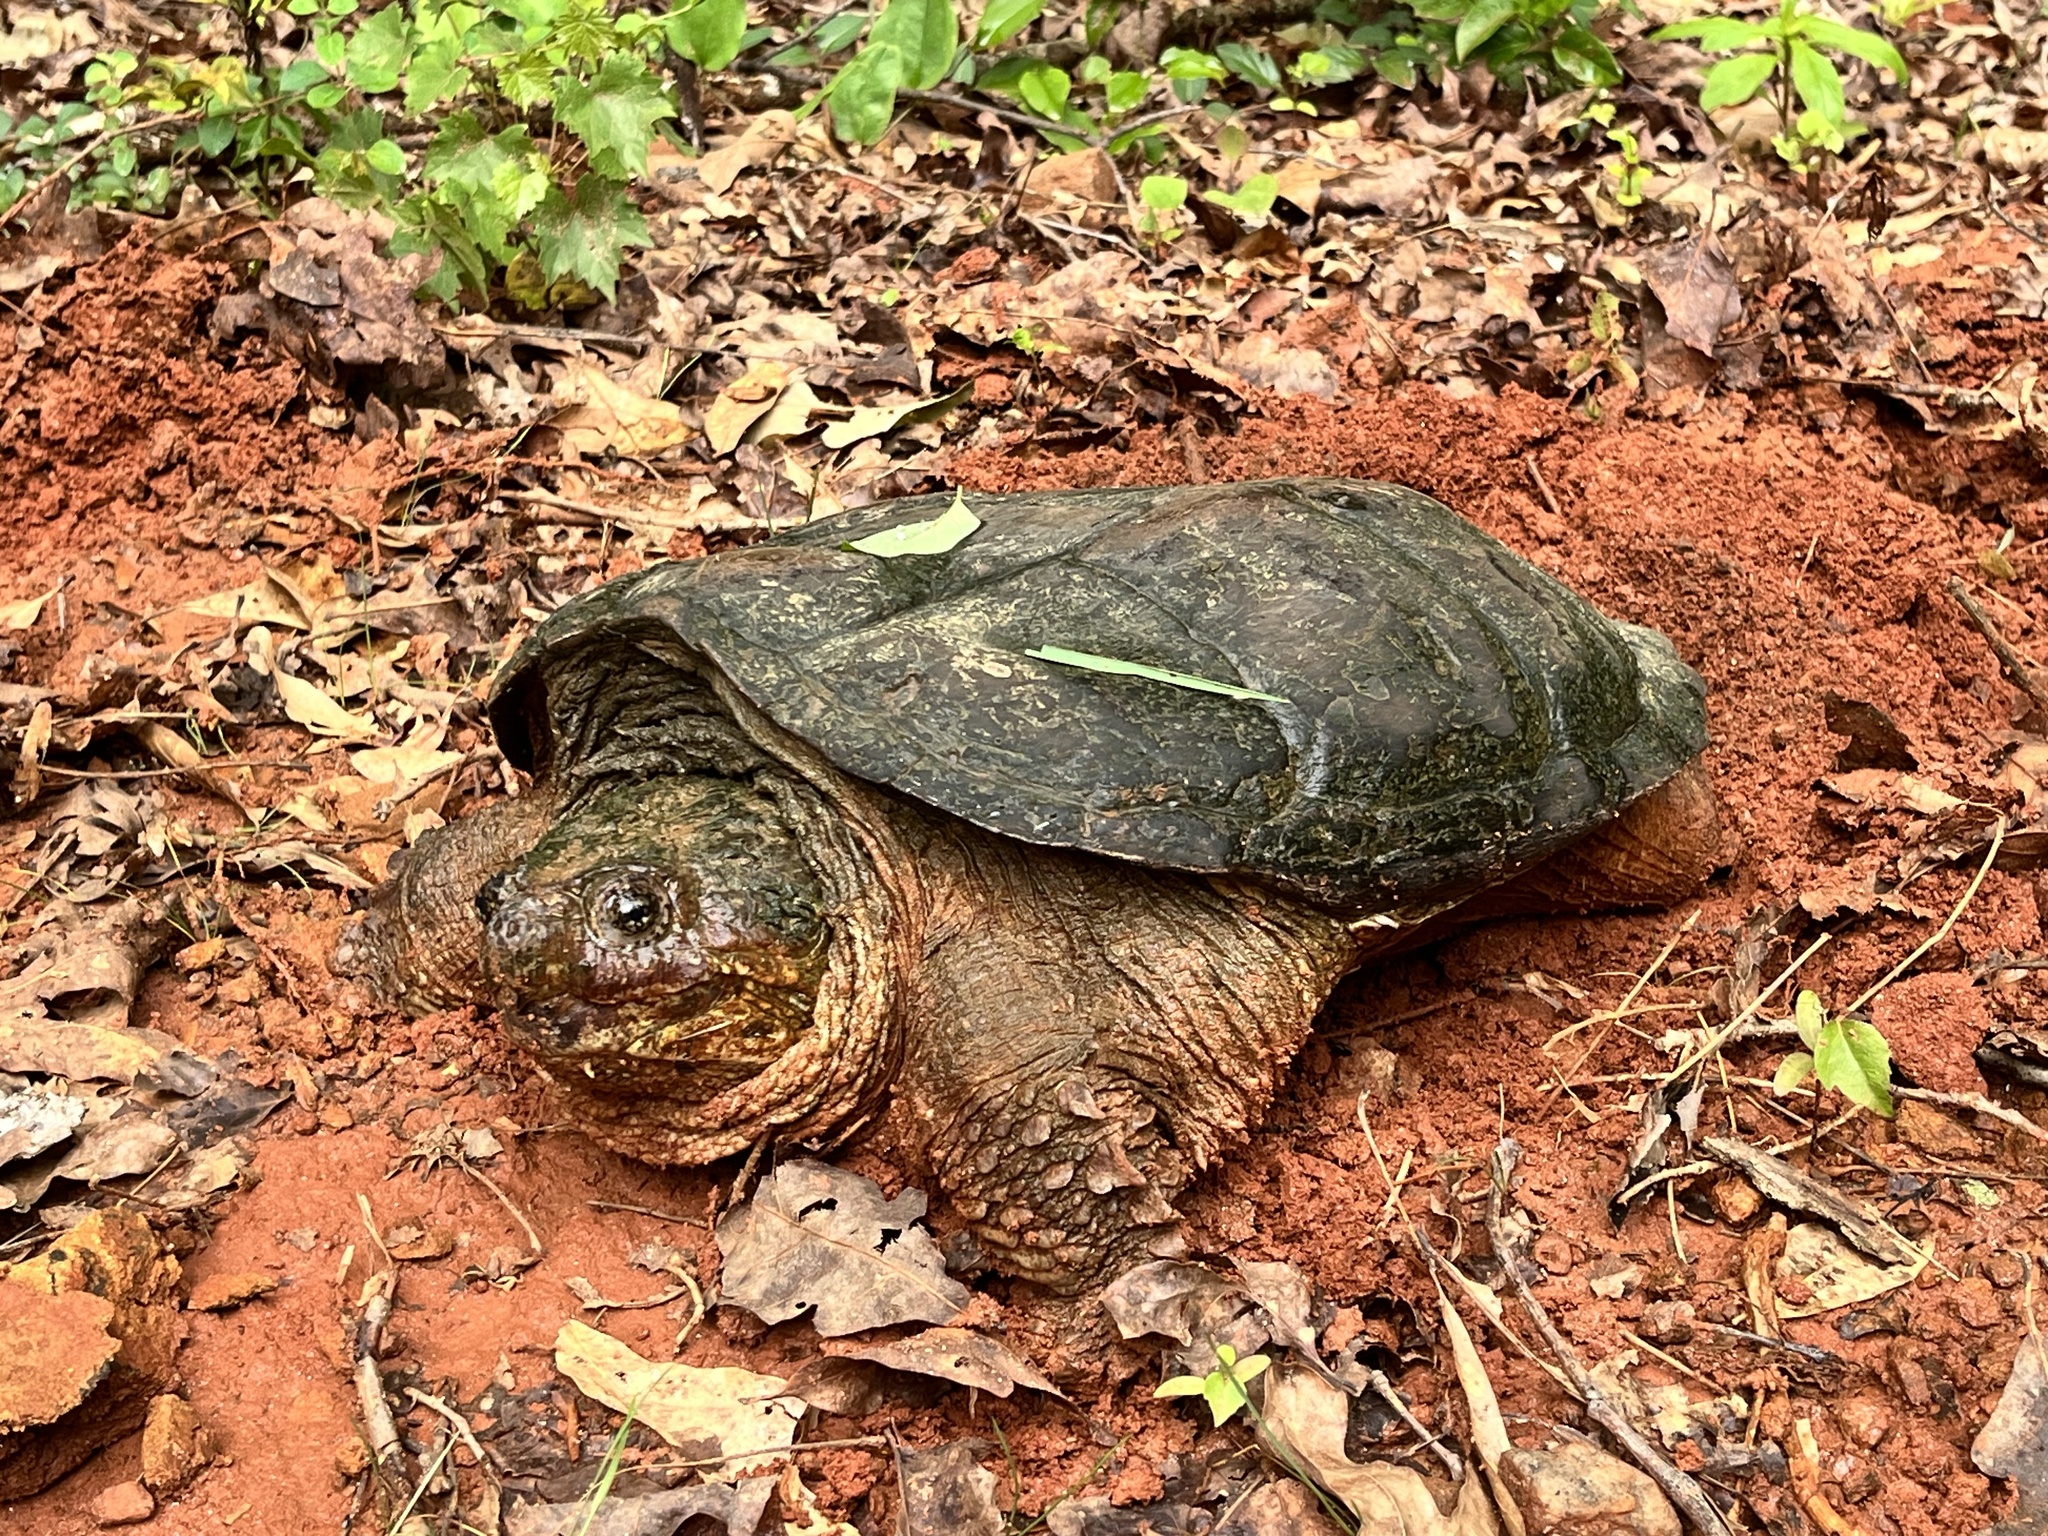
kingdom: Animalia
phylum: Chordata
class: Testudines
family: Chelydridae
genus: Chelydra
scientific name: Chelydra serpentina
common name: Common snapping turtle
